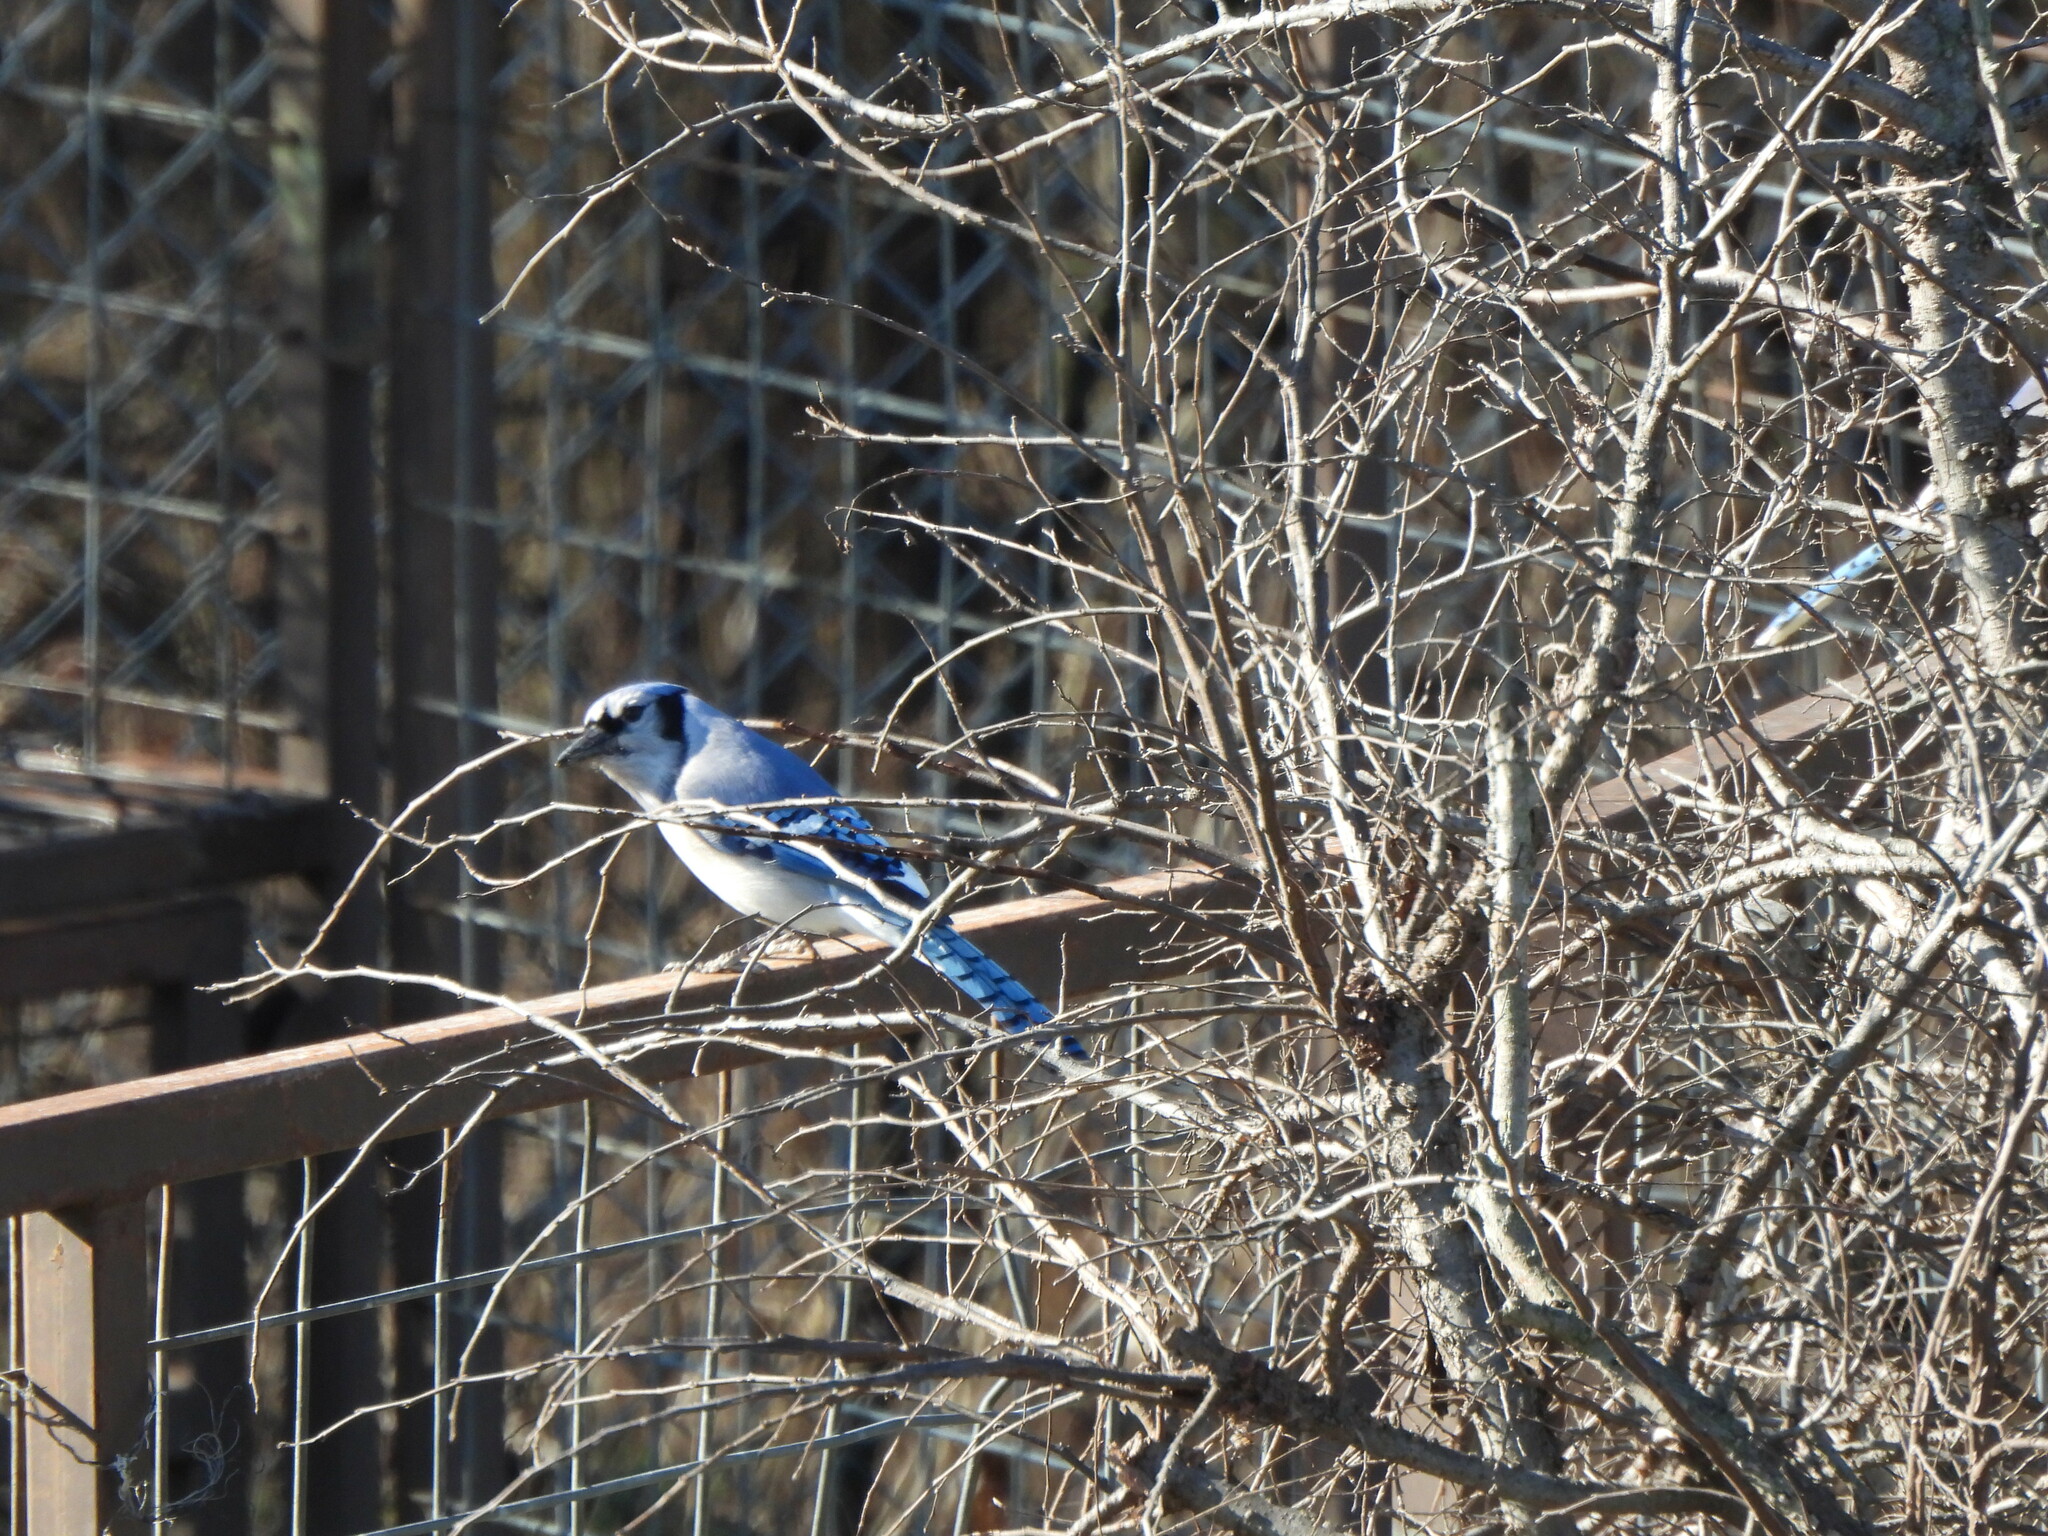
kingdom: Animalia
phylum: Chordata
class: Aves
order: Passeriformes
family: Corvidae
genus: Cyanocitta
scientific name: Cyanocitta cristata
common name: Blue jay
